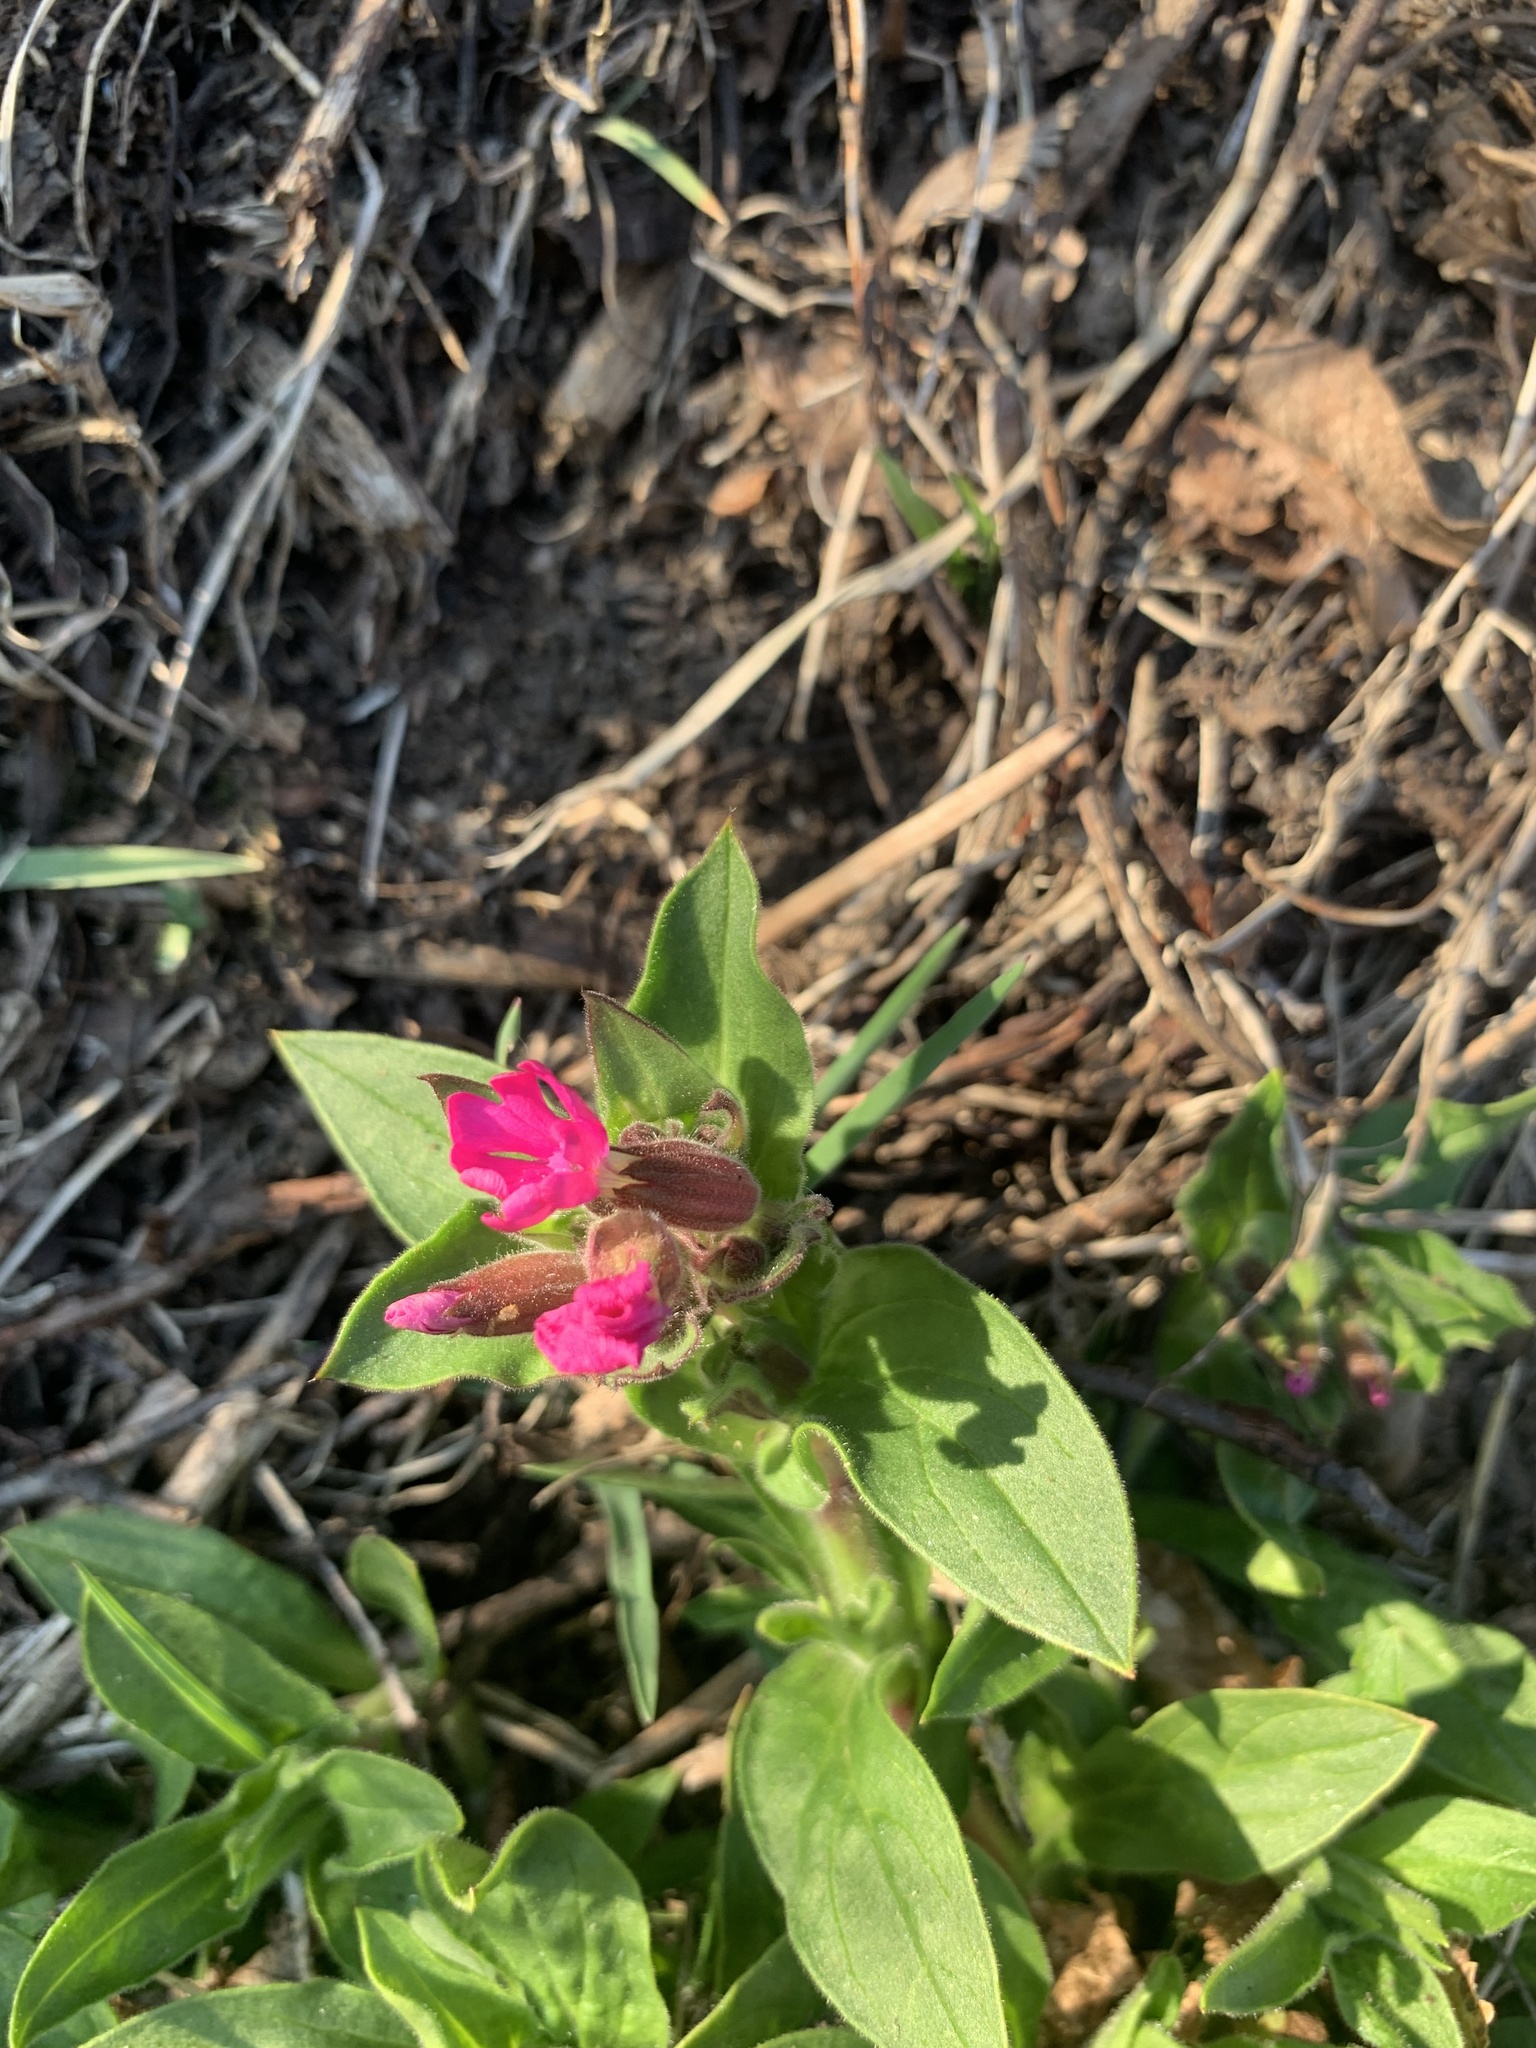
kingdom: Plantae
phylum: Tracheophyta
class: Magnoliopsida
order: Caryophyllales
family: Caryophyllaceae
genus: Silene
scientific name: Silene dioica
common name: Red campion
